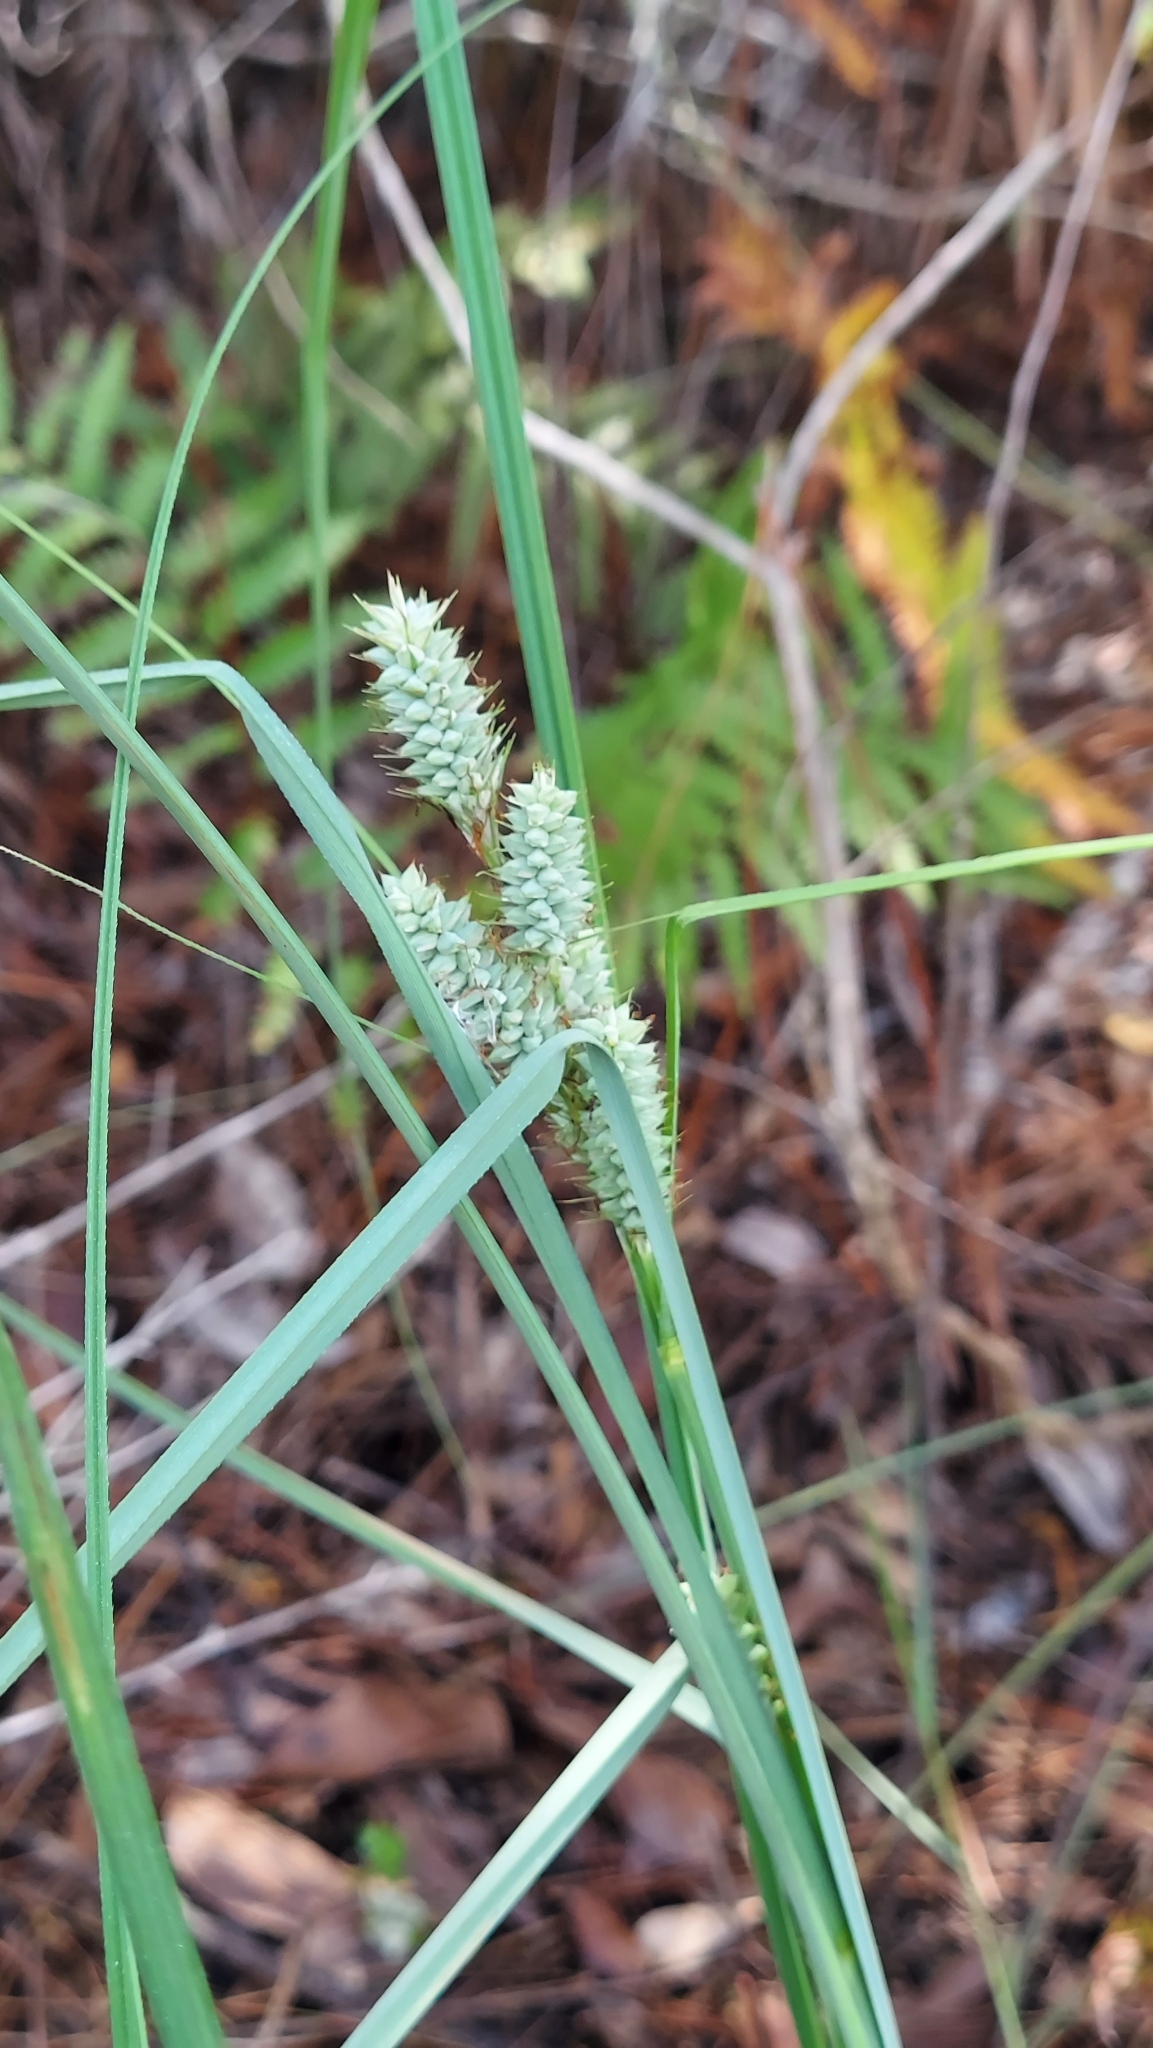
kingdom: Plantae
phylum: Tracheophyta
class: Liliopsida
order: Poales
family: Cyperaceae
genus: Carex
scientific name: Carex verrucosa
